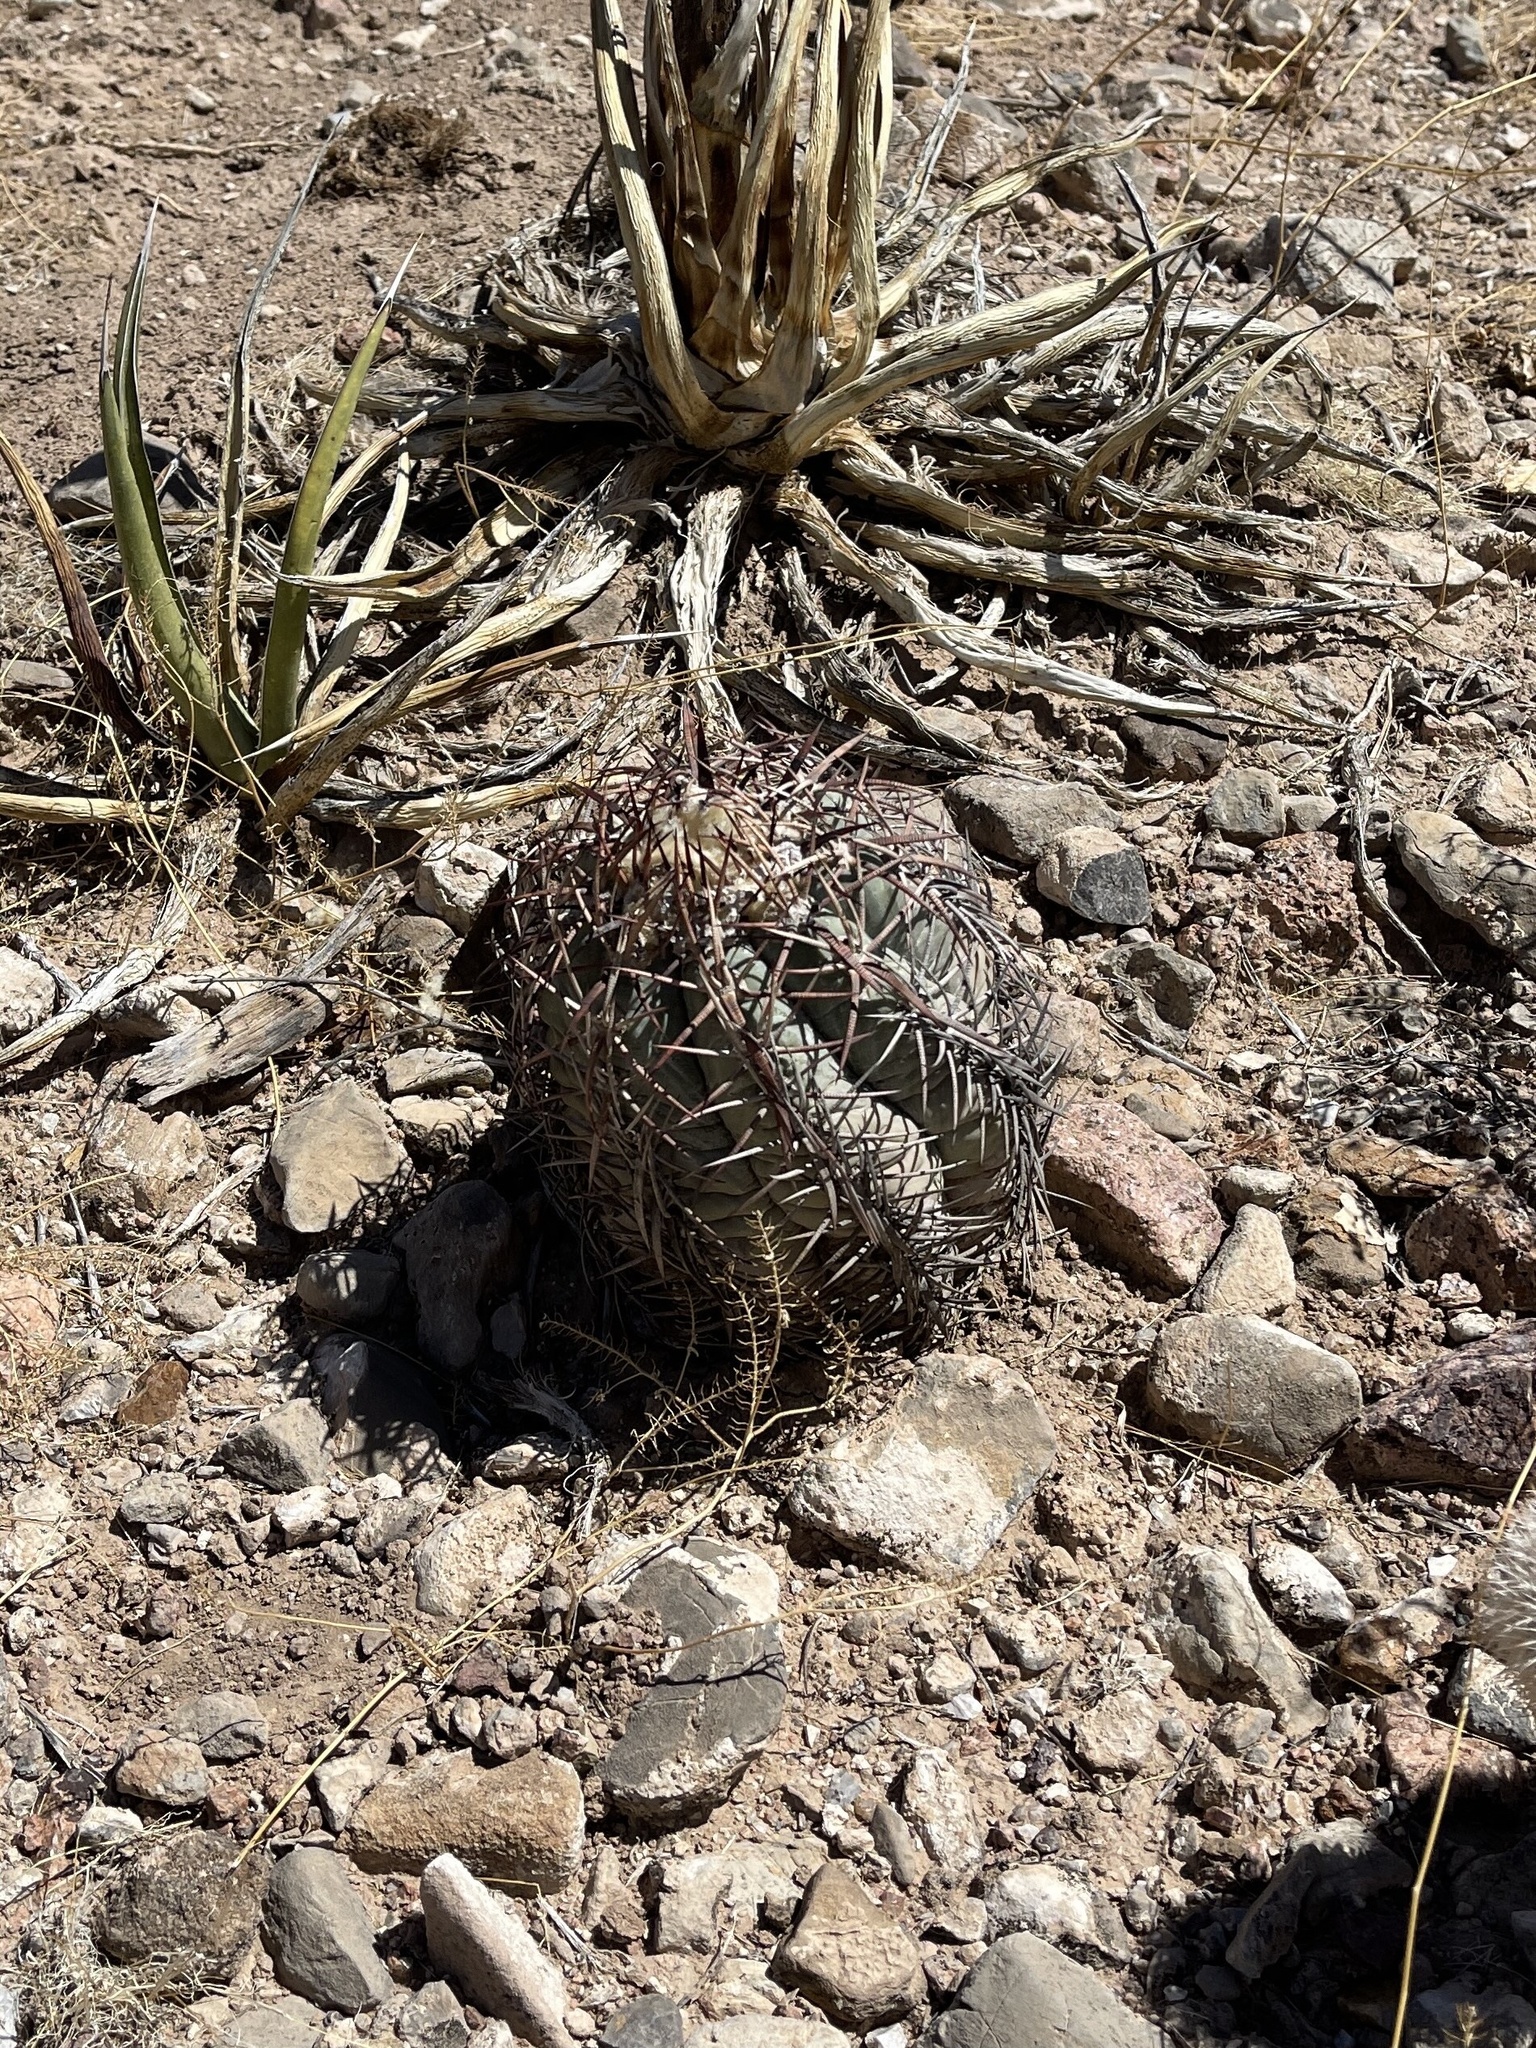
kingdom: Plantae
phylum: Tracheophyta
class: Magnoliopsida
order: Caryophyllales
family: Cactaceae
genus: Echinocactus
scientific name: Echinocactus horizonthalonius
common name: Devilshead
